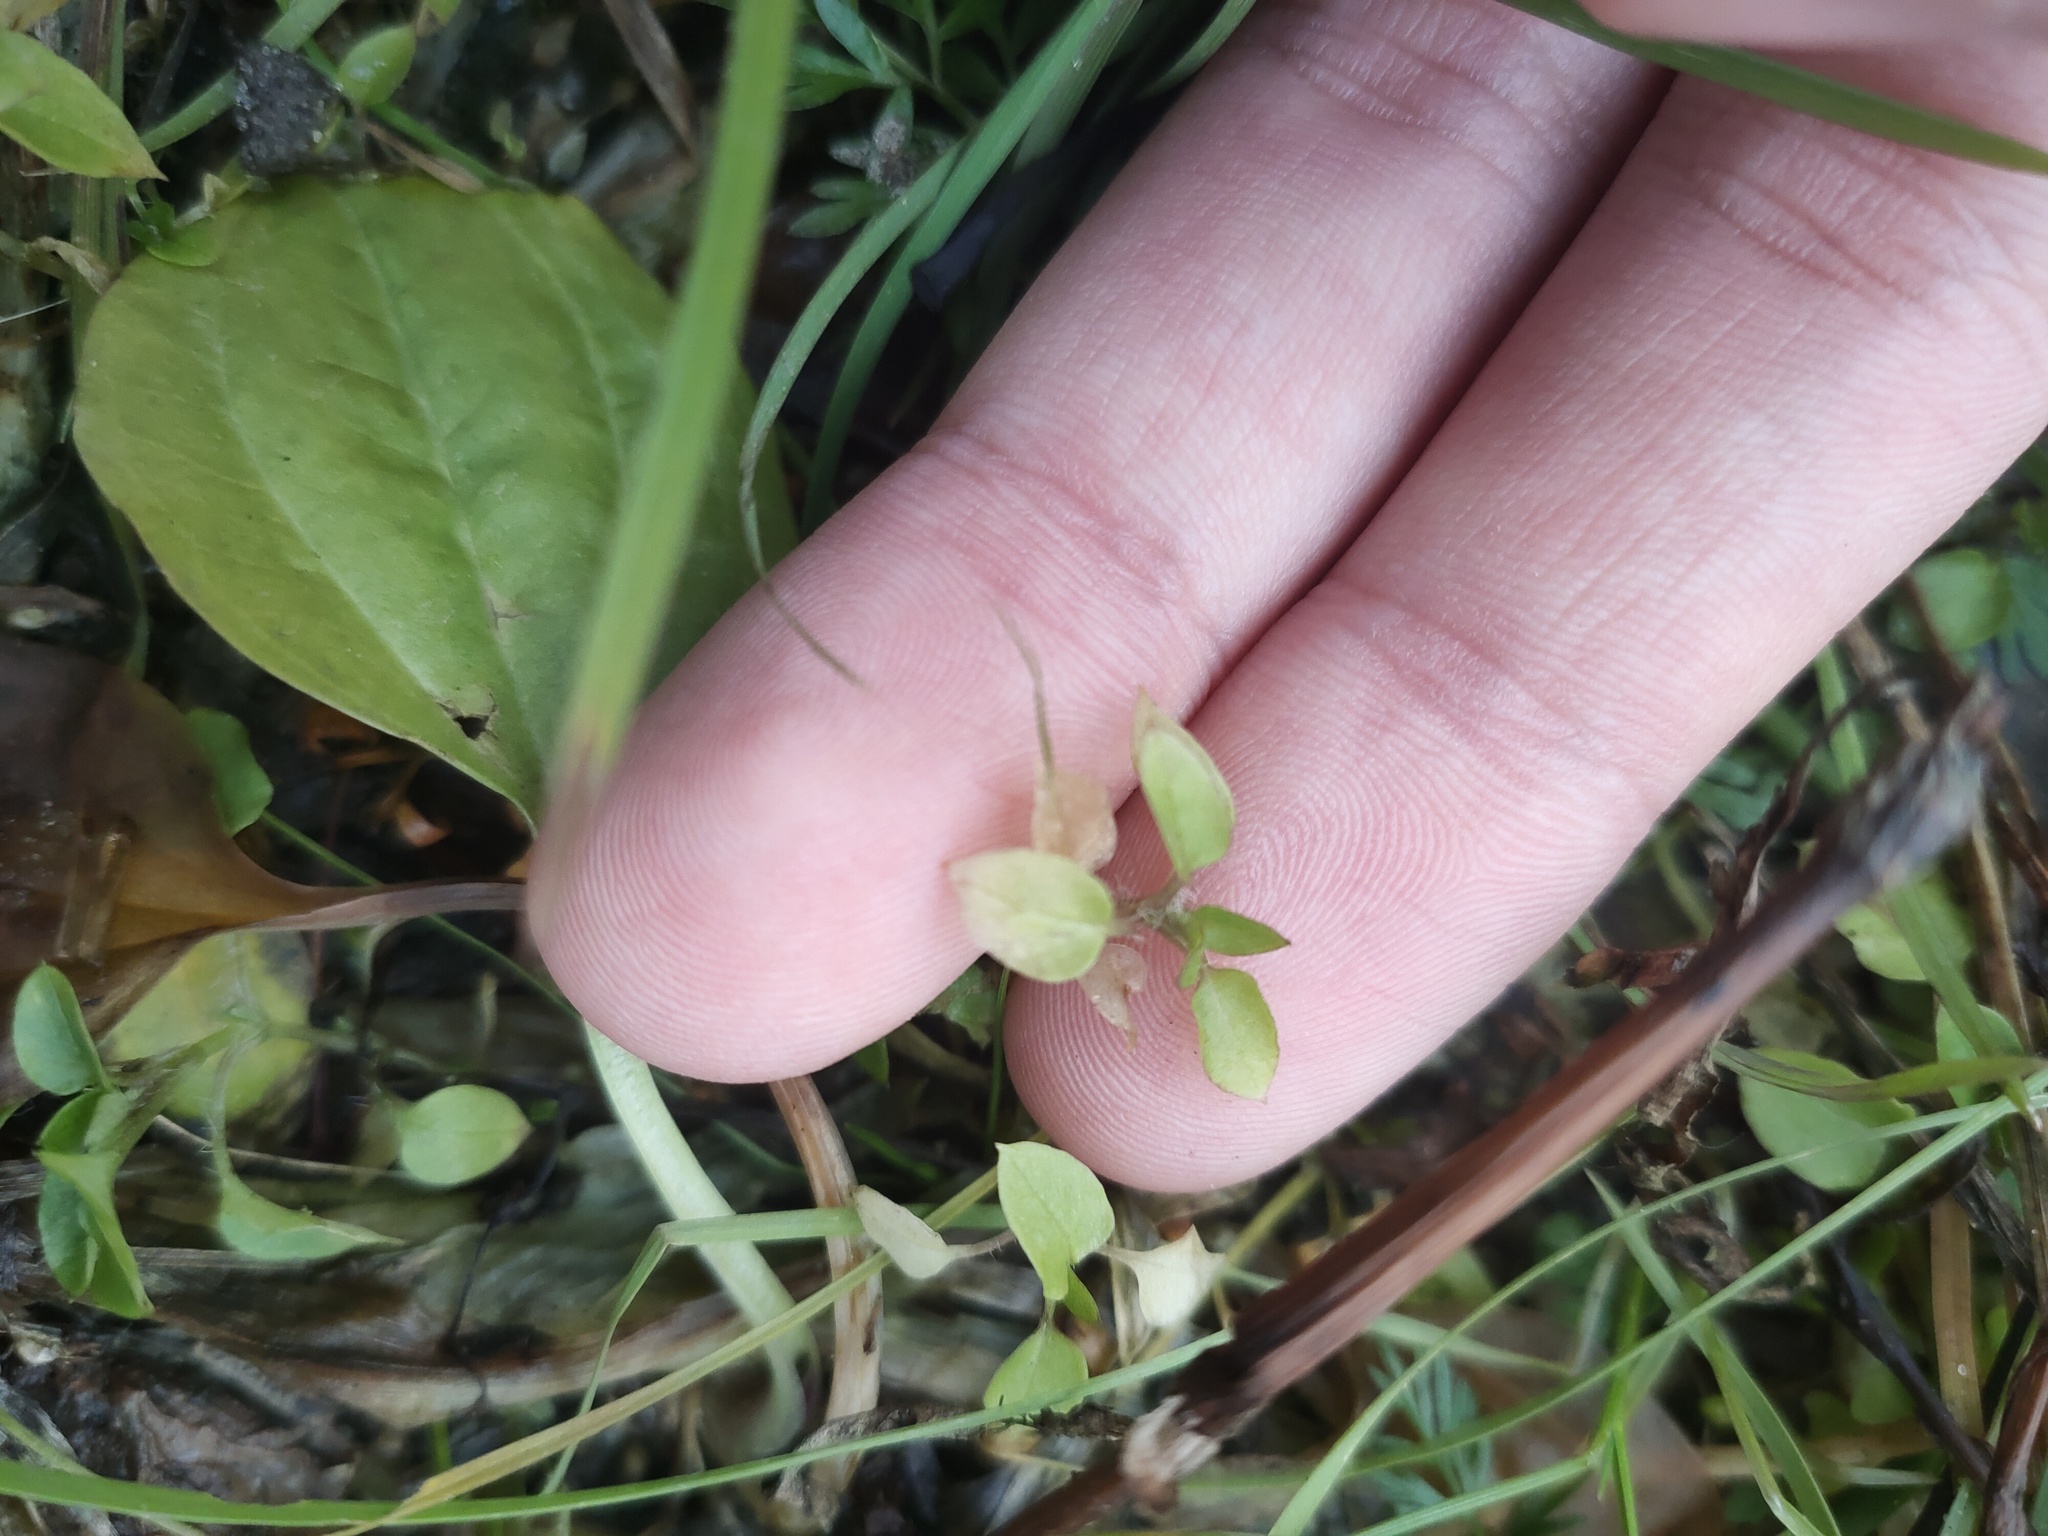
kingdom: Plantae
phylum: Tracheophyta
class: Magnoliopsida
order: Caryophyllales
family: Caryophyllaceae
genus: Stellaria
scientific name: Stellaria media
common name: Common chickweed
